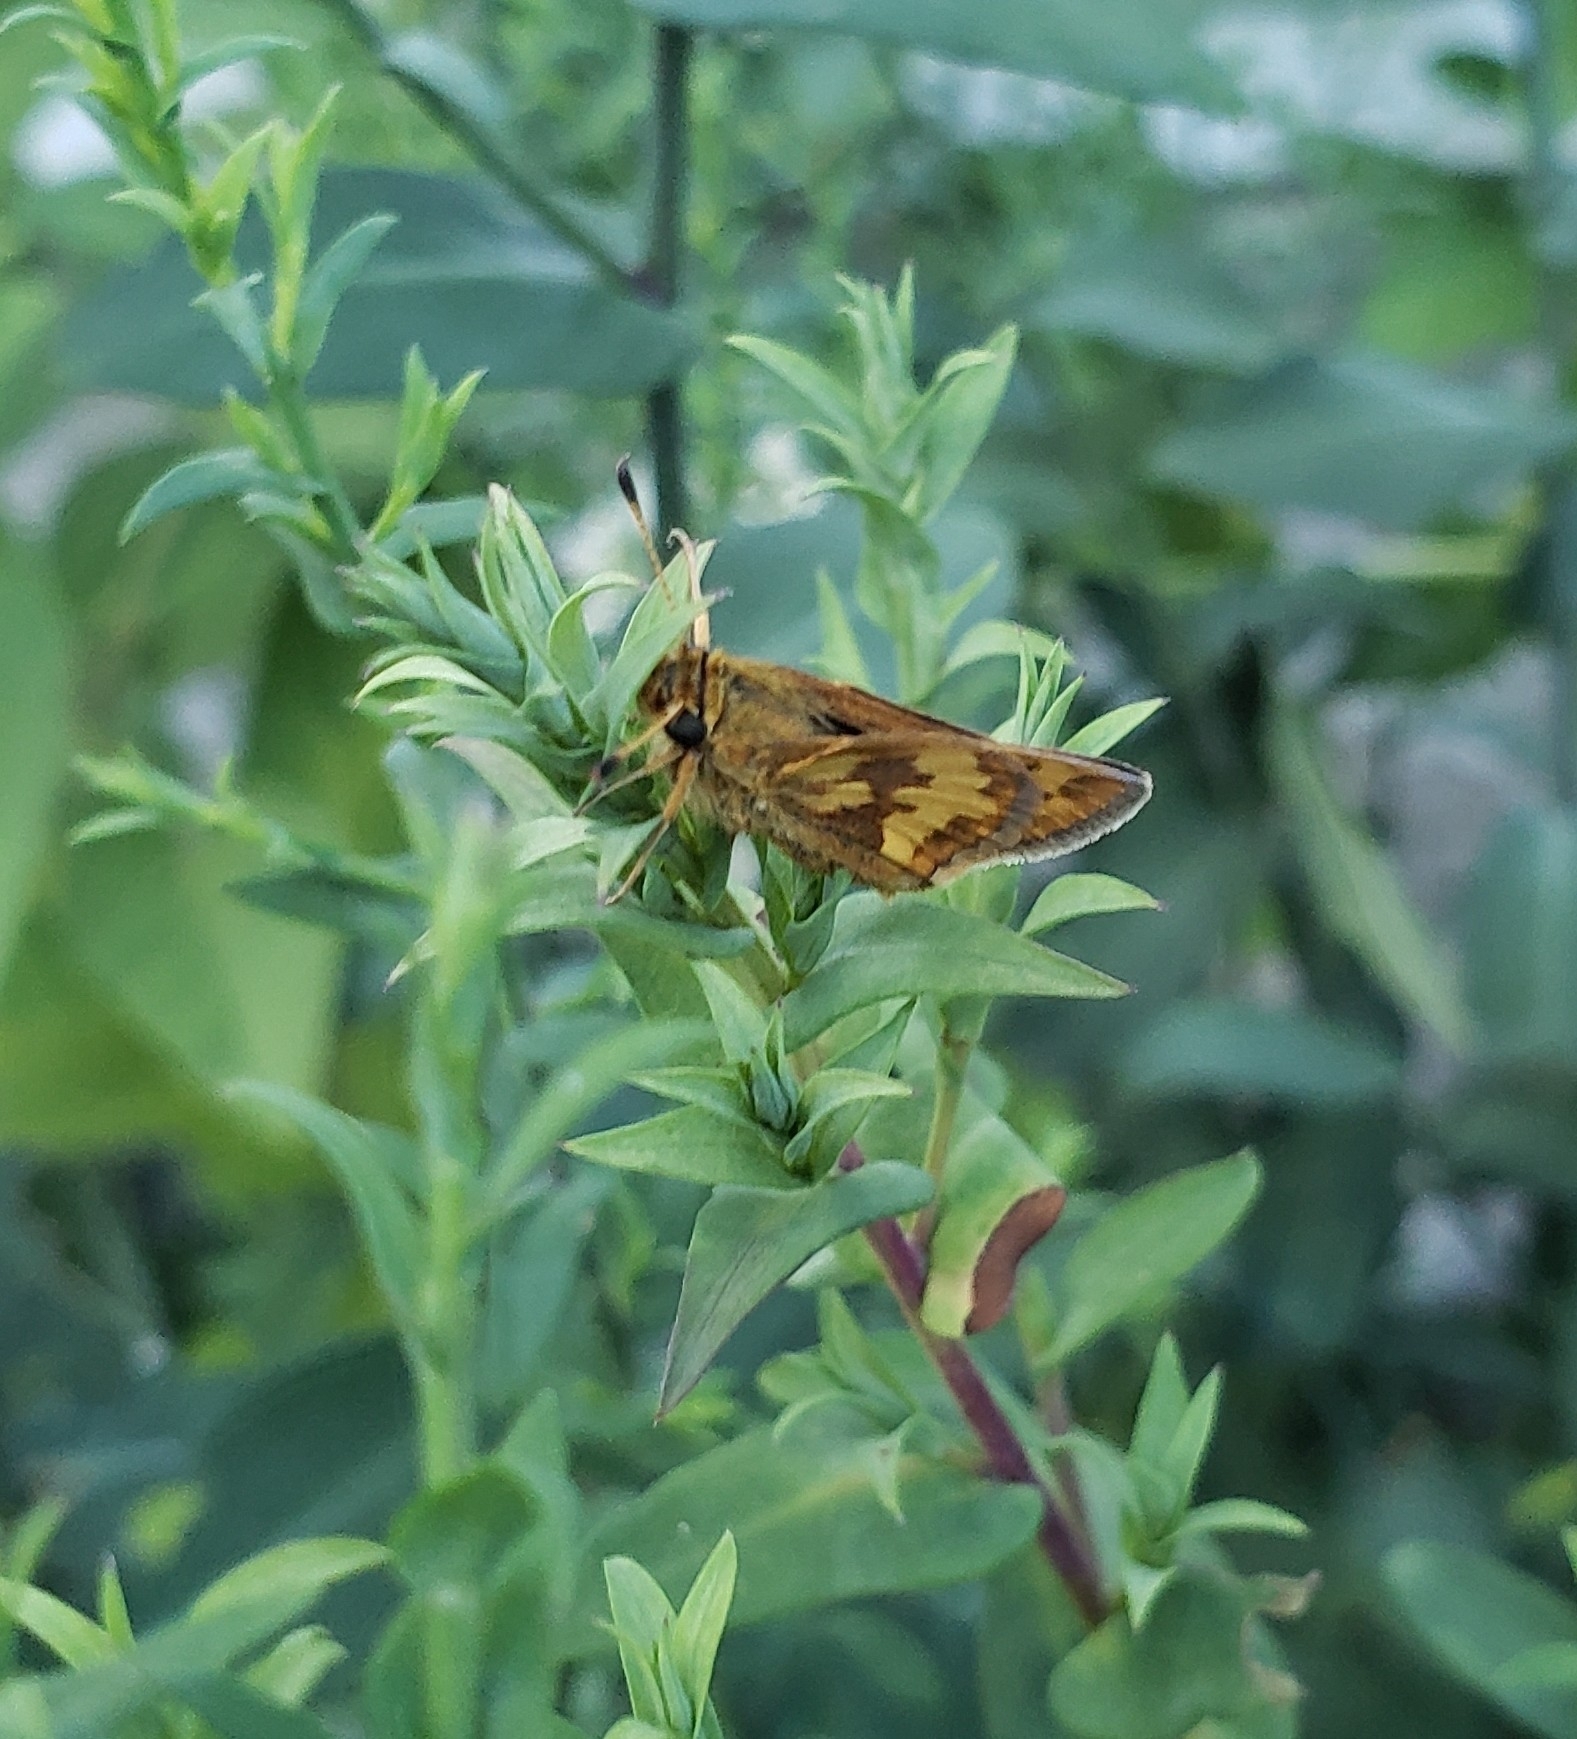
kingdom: Animalia
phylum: Arthropoda
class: Insecta
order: Lepidoptera
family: Hesperiidae
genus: Polites
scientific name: Polites coras
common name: Peck's skipper
